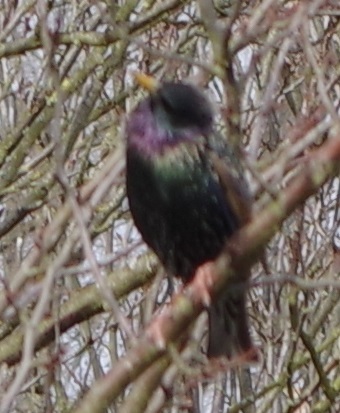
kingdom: Animalia
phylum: Chordata
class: Aves
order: Passeriformes
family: Sturnidae
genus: Sturnus
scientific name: Sturnus vulgaris
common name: Common starling
